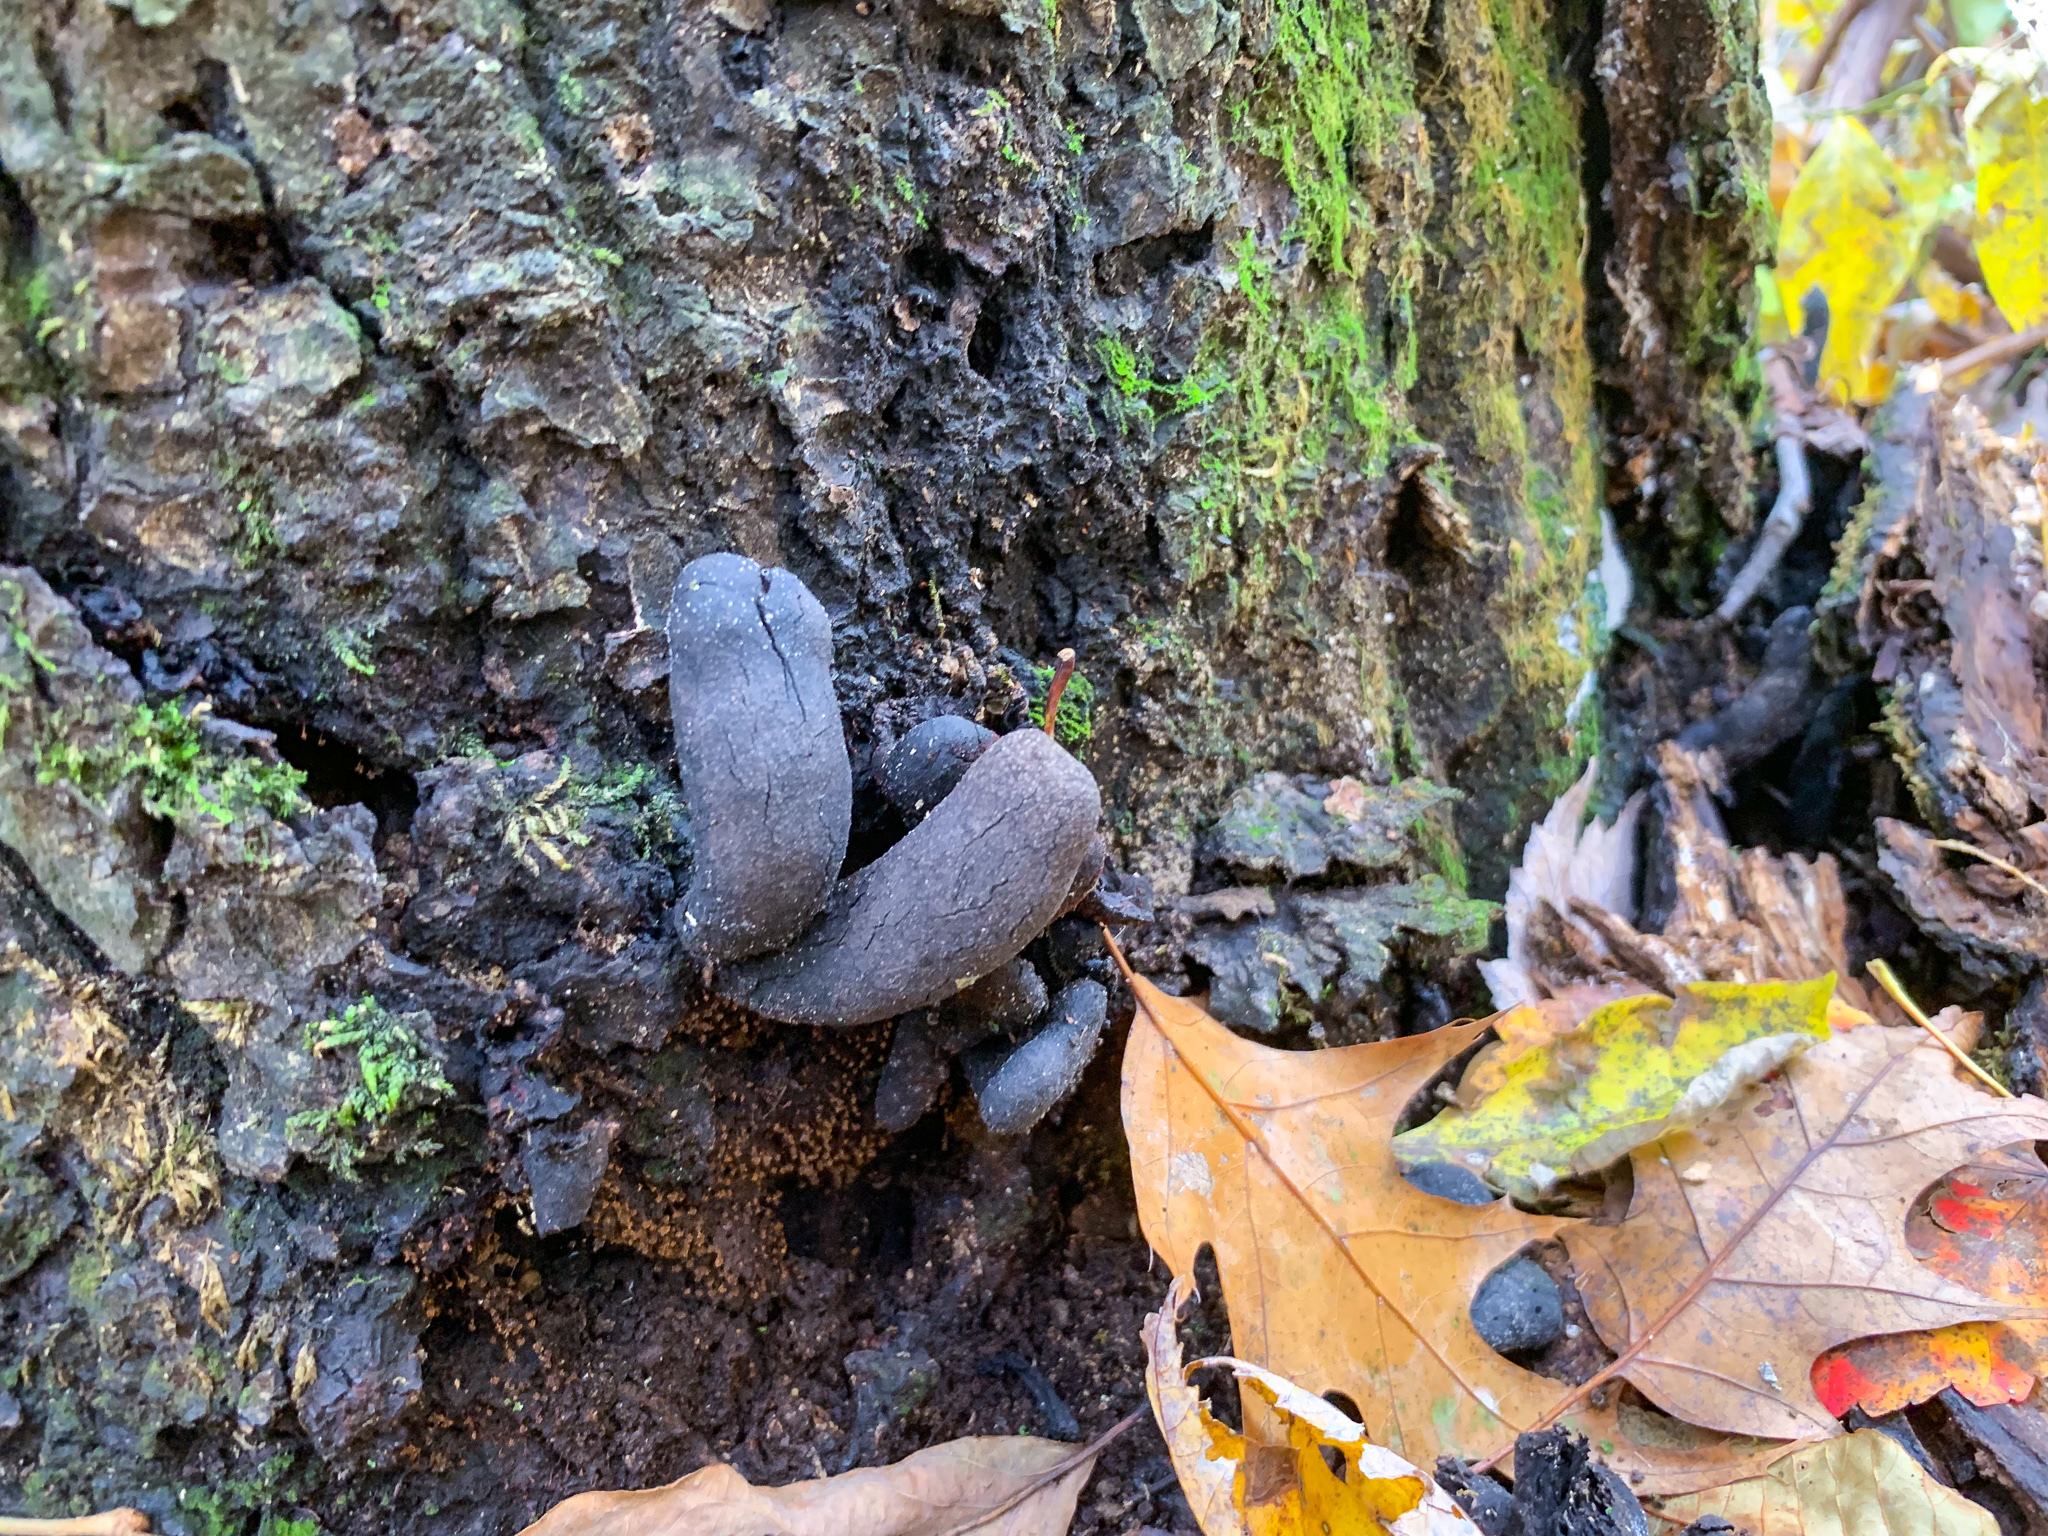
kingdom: Fungi
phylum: Ascomycota
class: Sordariomycetes
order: Xylariales
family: Xylariaceae
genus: Xylaria
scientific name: Xylaria polymorpha
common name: Dead man's fingers
